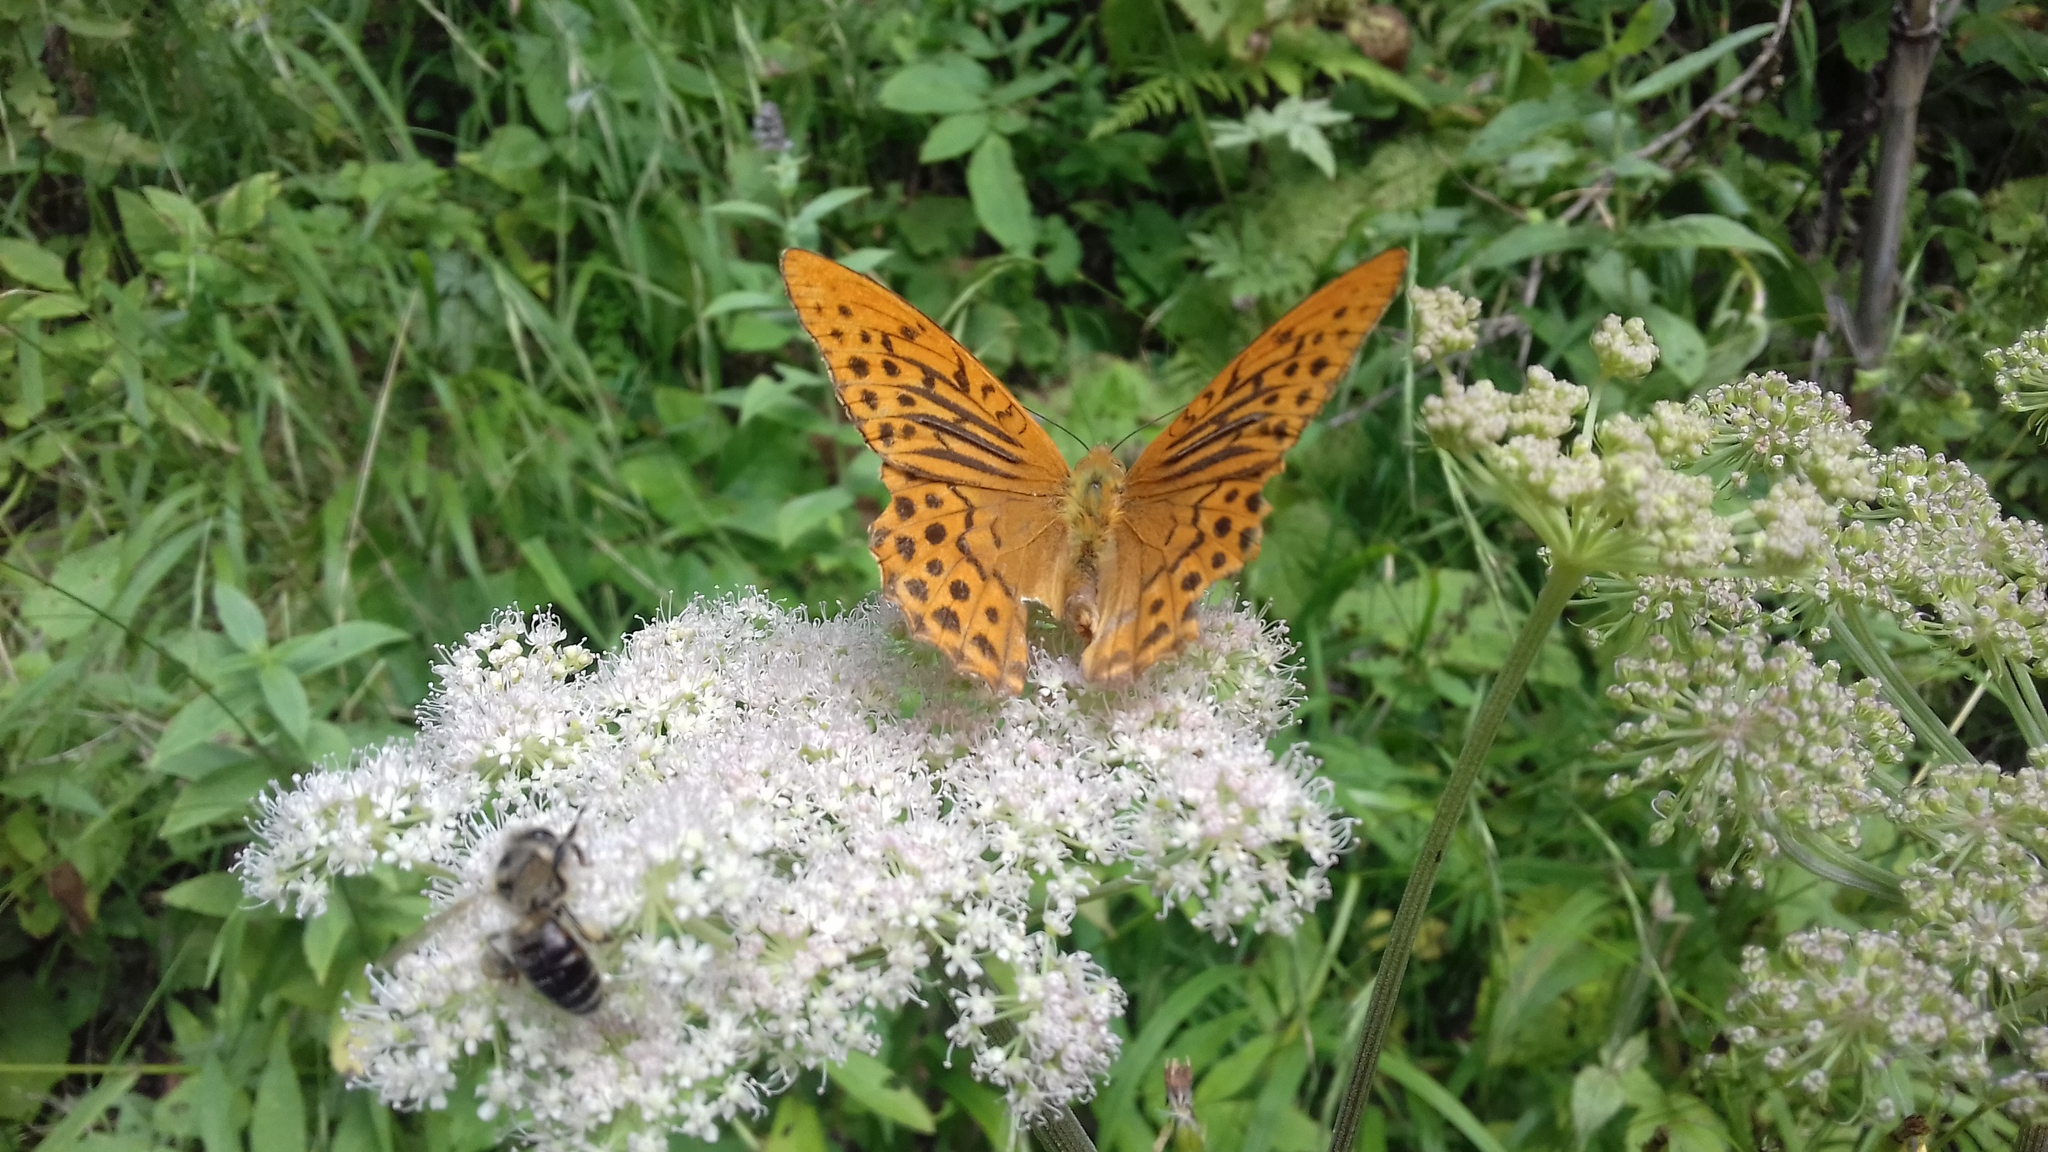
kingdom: Animalia
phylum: Arthropoda
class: Insecta
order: Lepidoptera
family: Nymphalidae
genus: Argynnis
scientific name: Argynnis paphia
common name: Silver-washed fritillary
